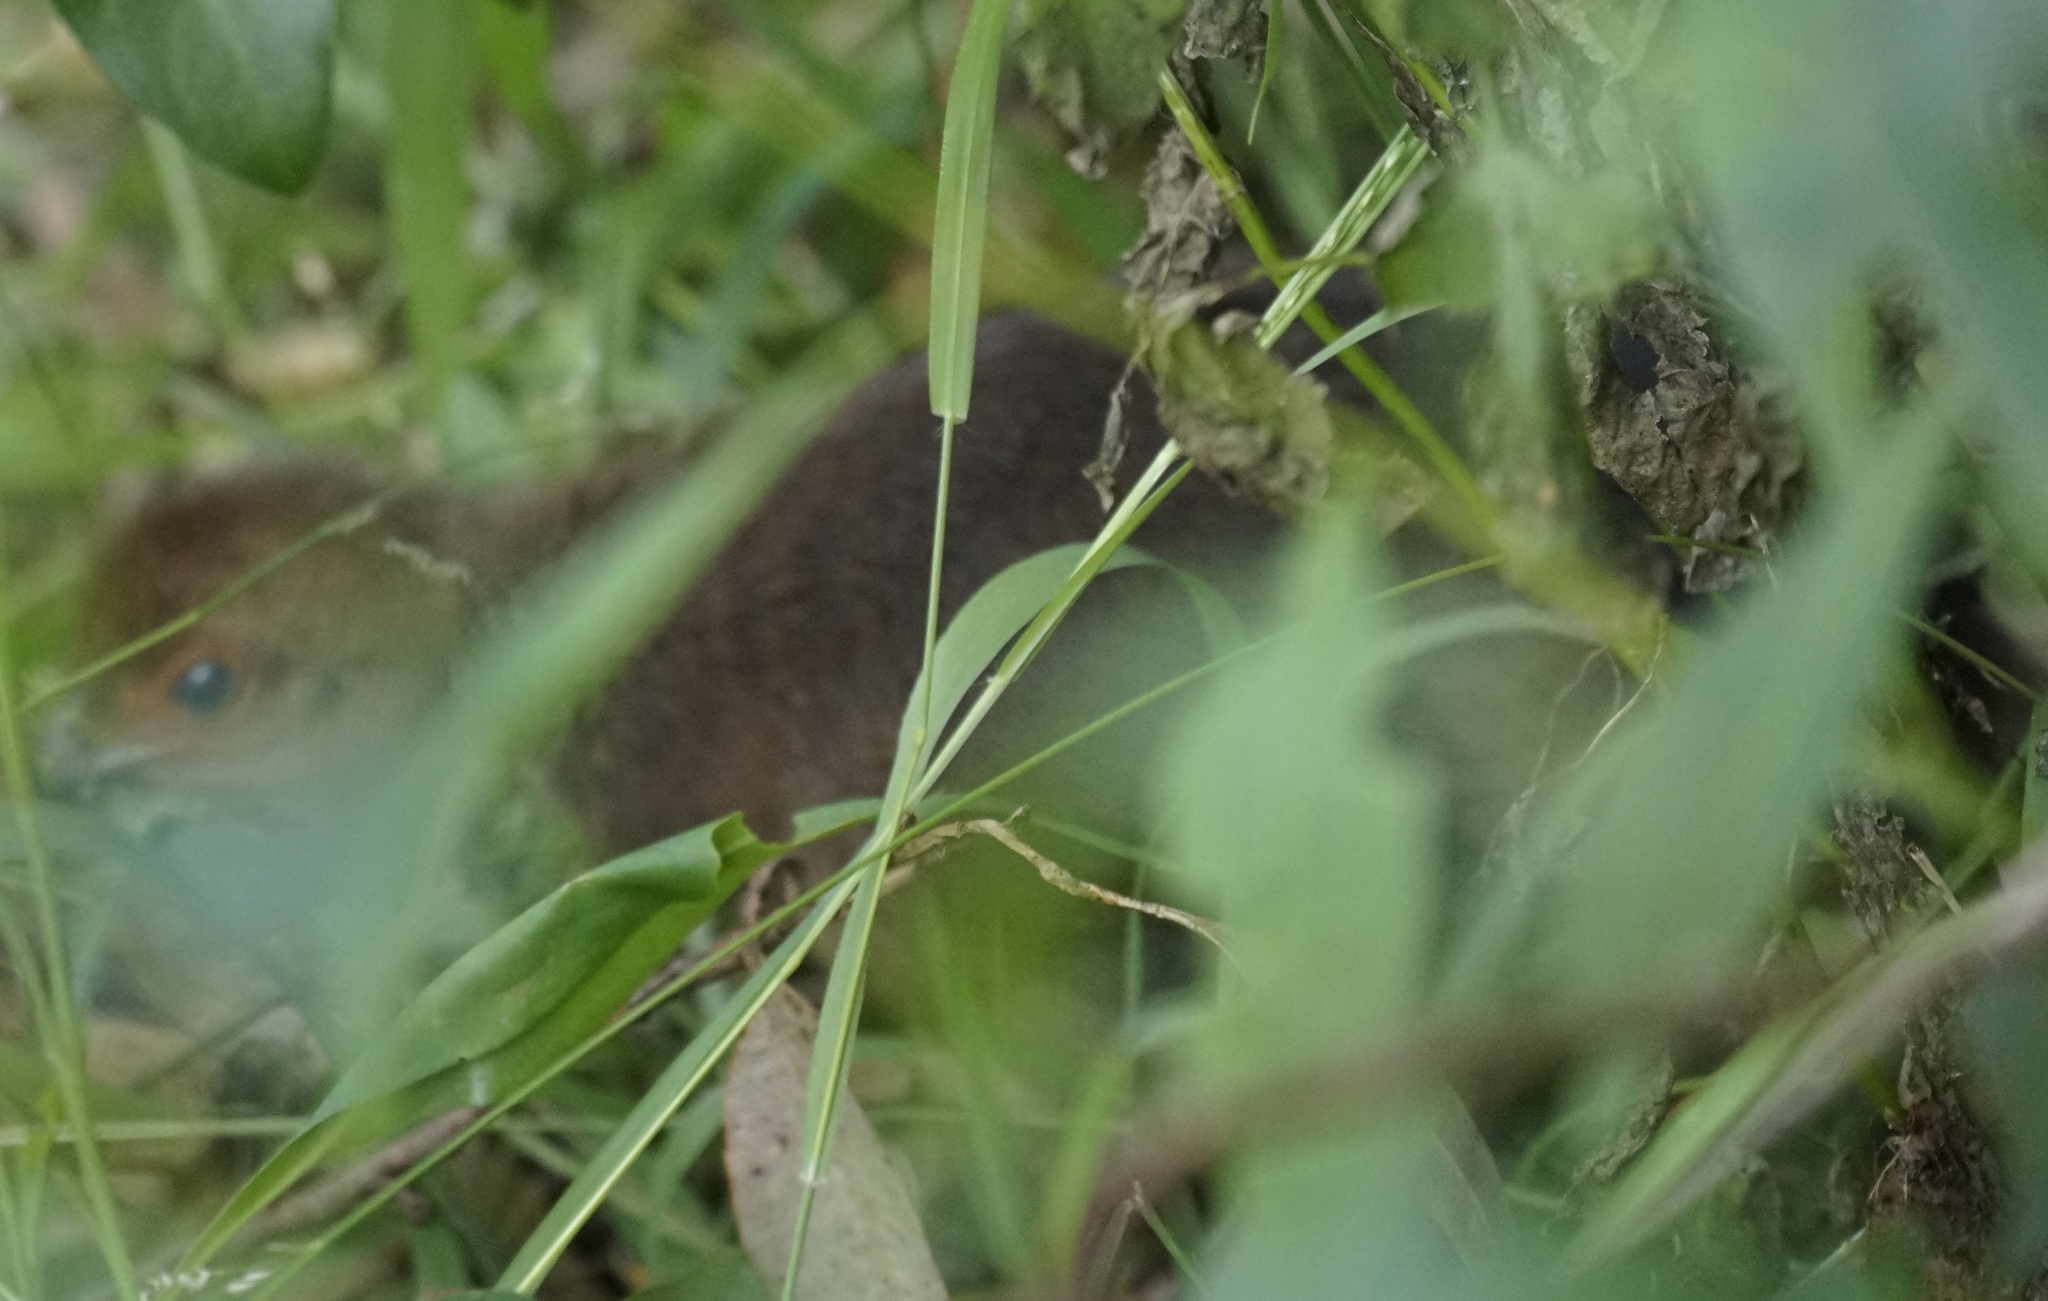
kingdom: Animalia
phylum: Chordata
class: Aves
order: Galliformes
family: Megapodiidae
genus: Alectura
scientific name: Alectura lathami
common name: Australian brushturkey
